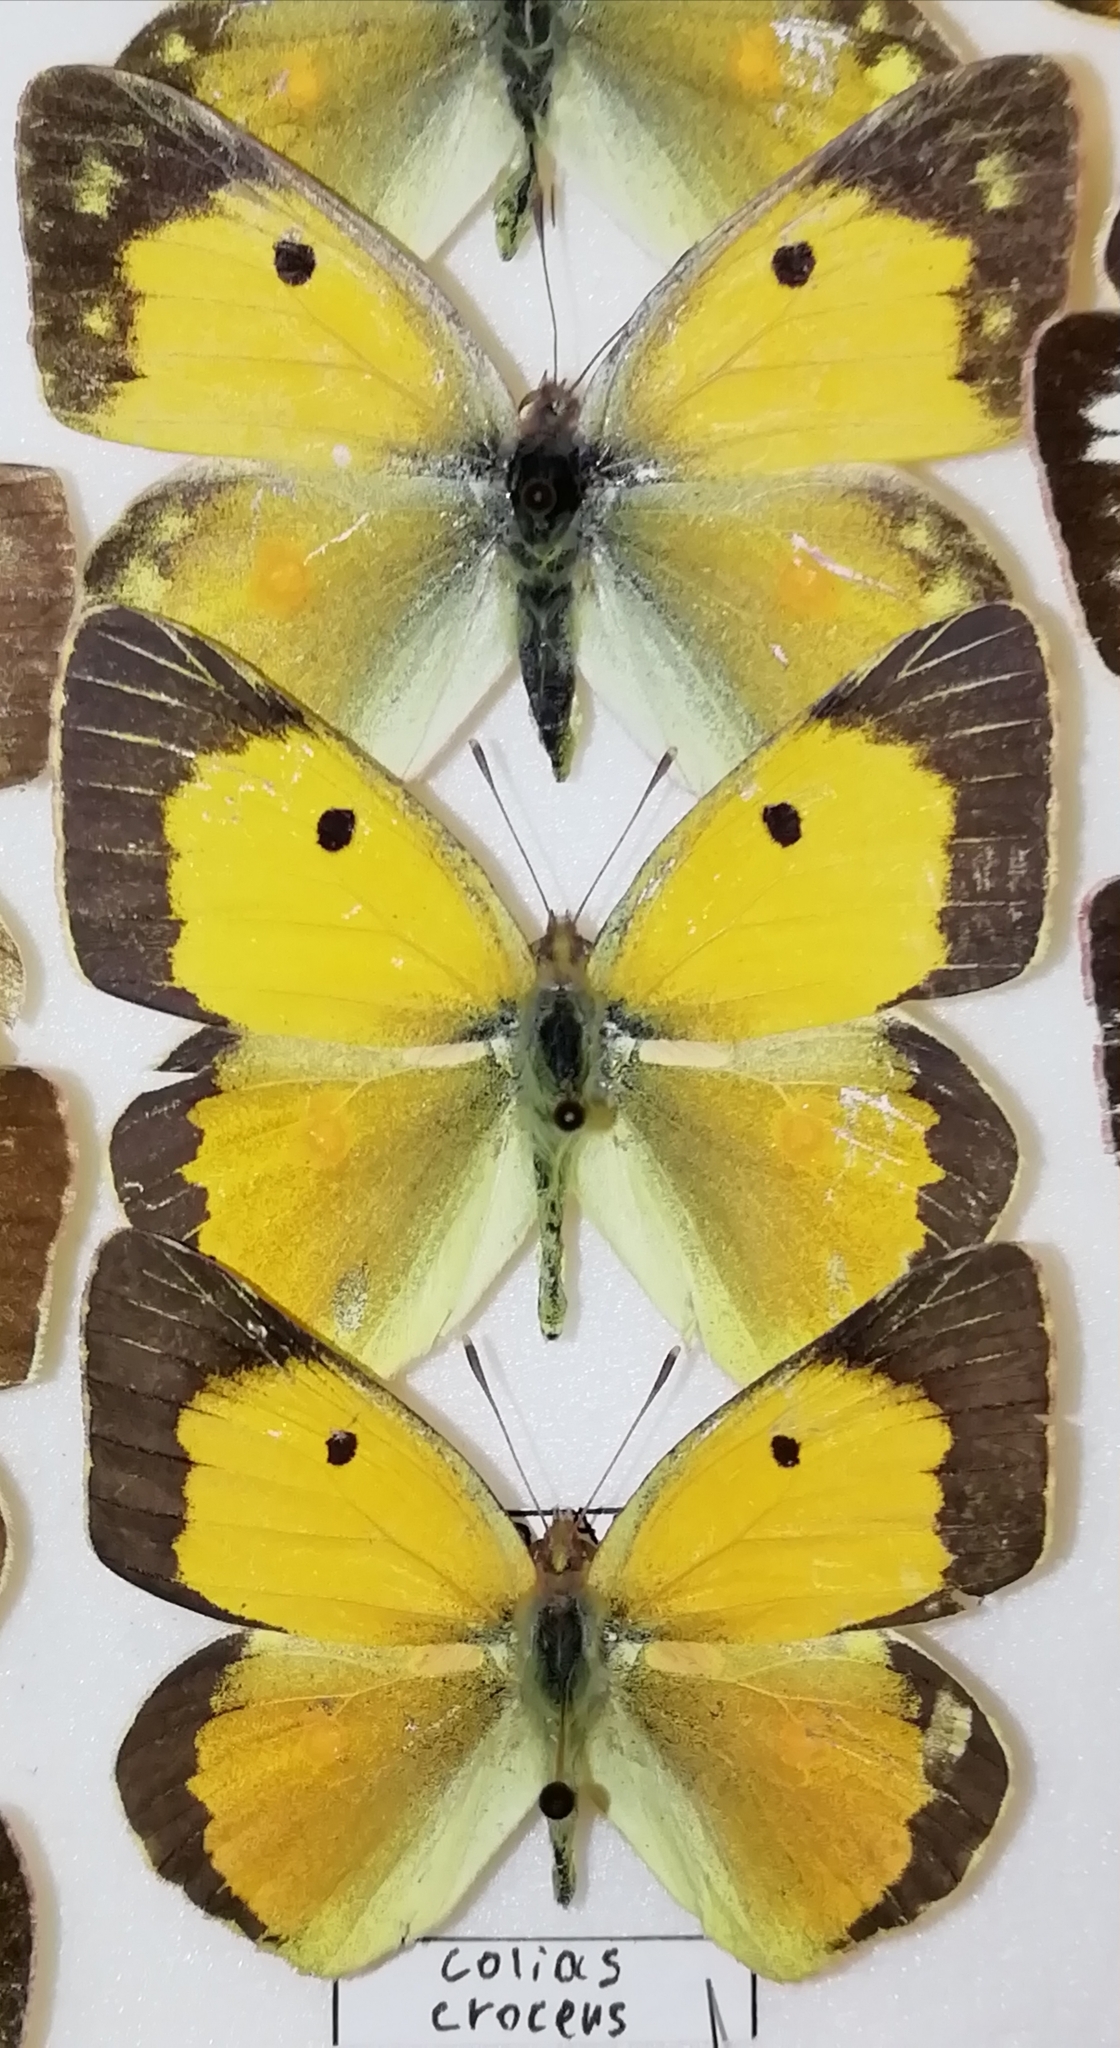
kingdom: Animalia
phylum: Arthropoda
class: Insecta
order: Lepidoptera
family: Pieridae
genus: Colias
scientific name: Colias croceus
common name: Clouded yellow
